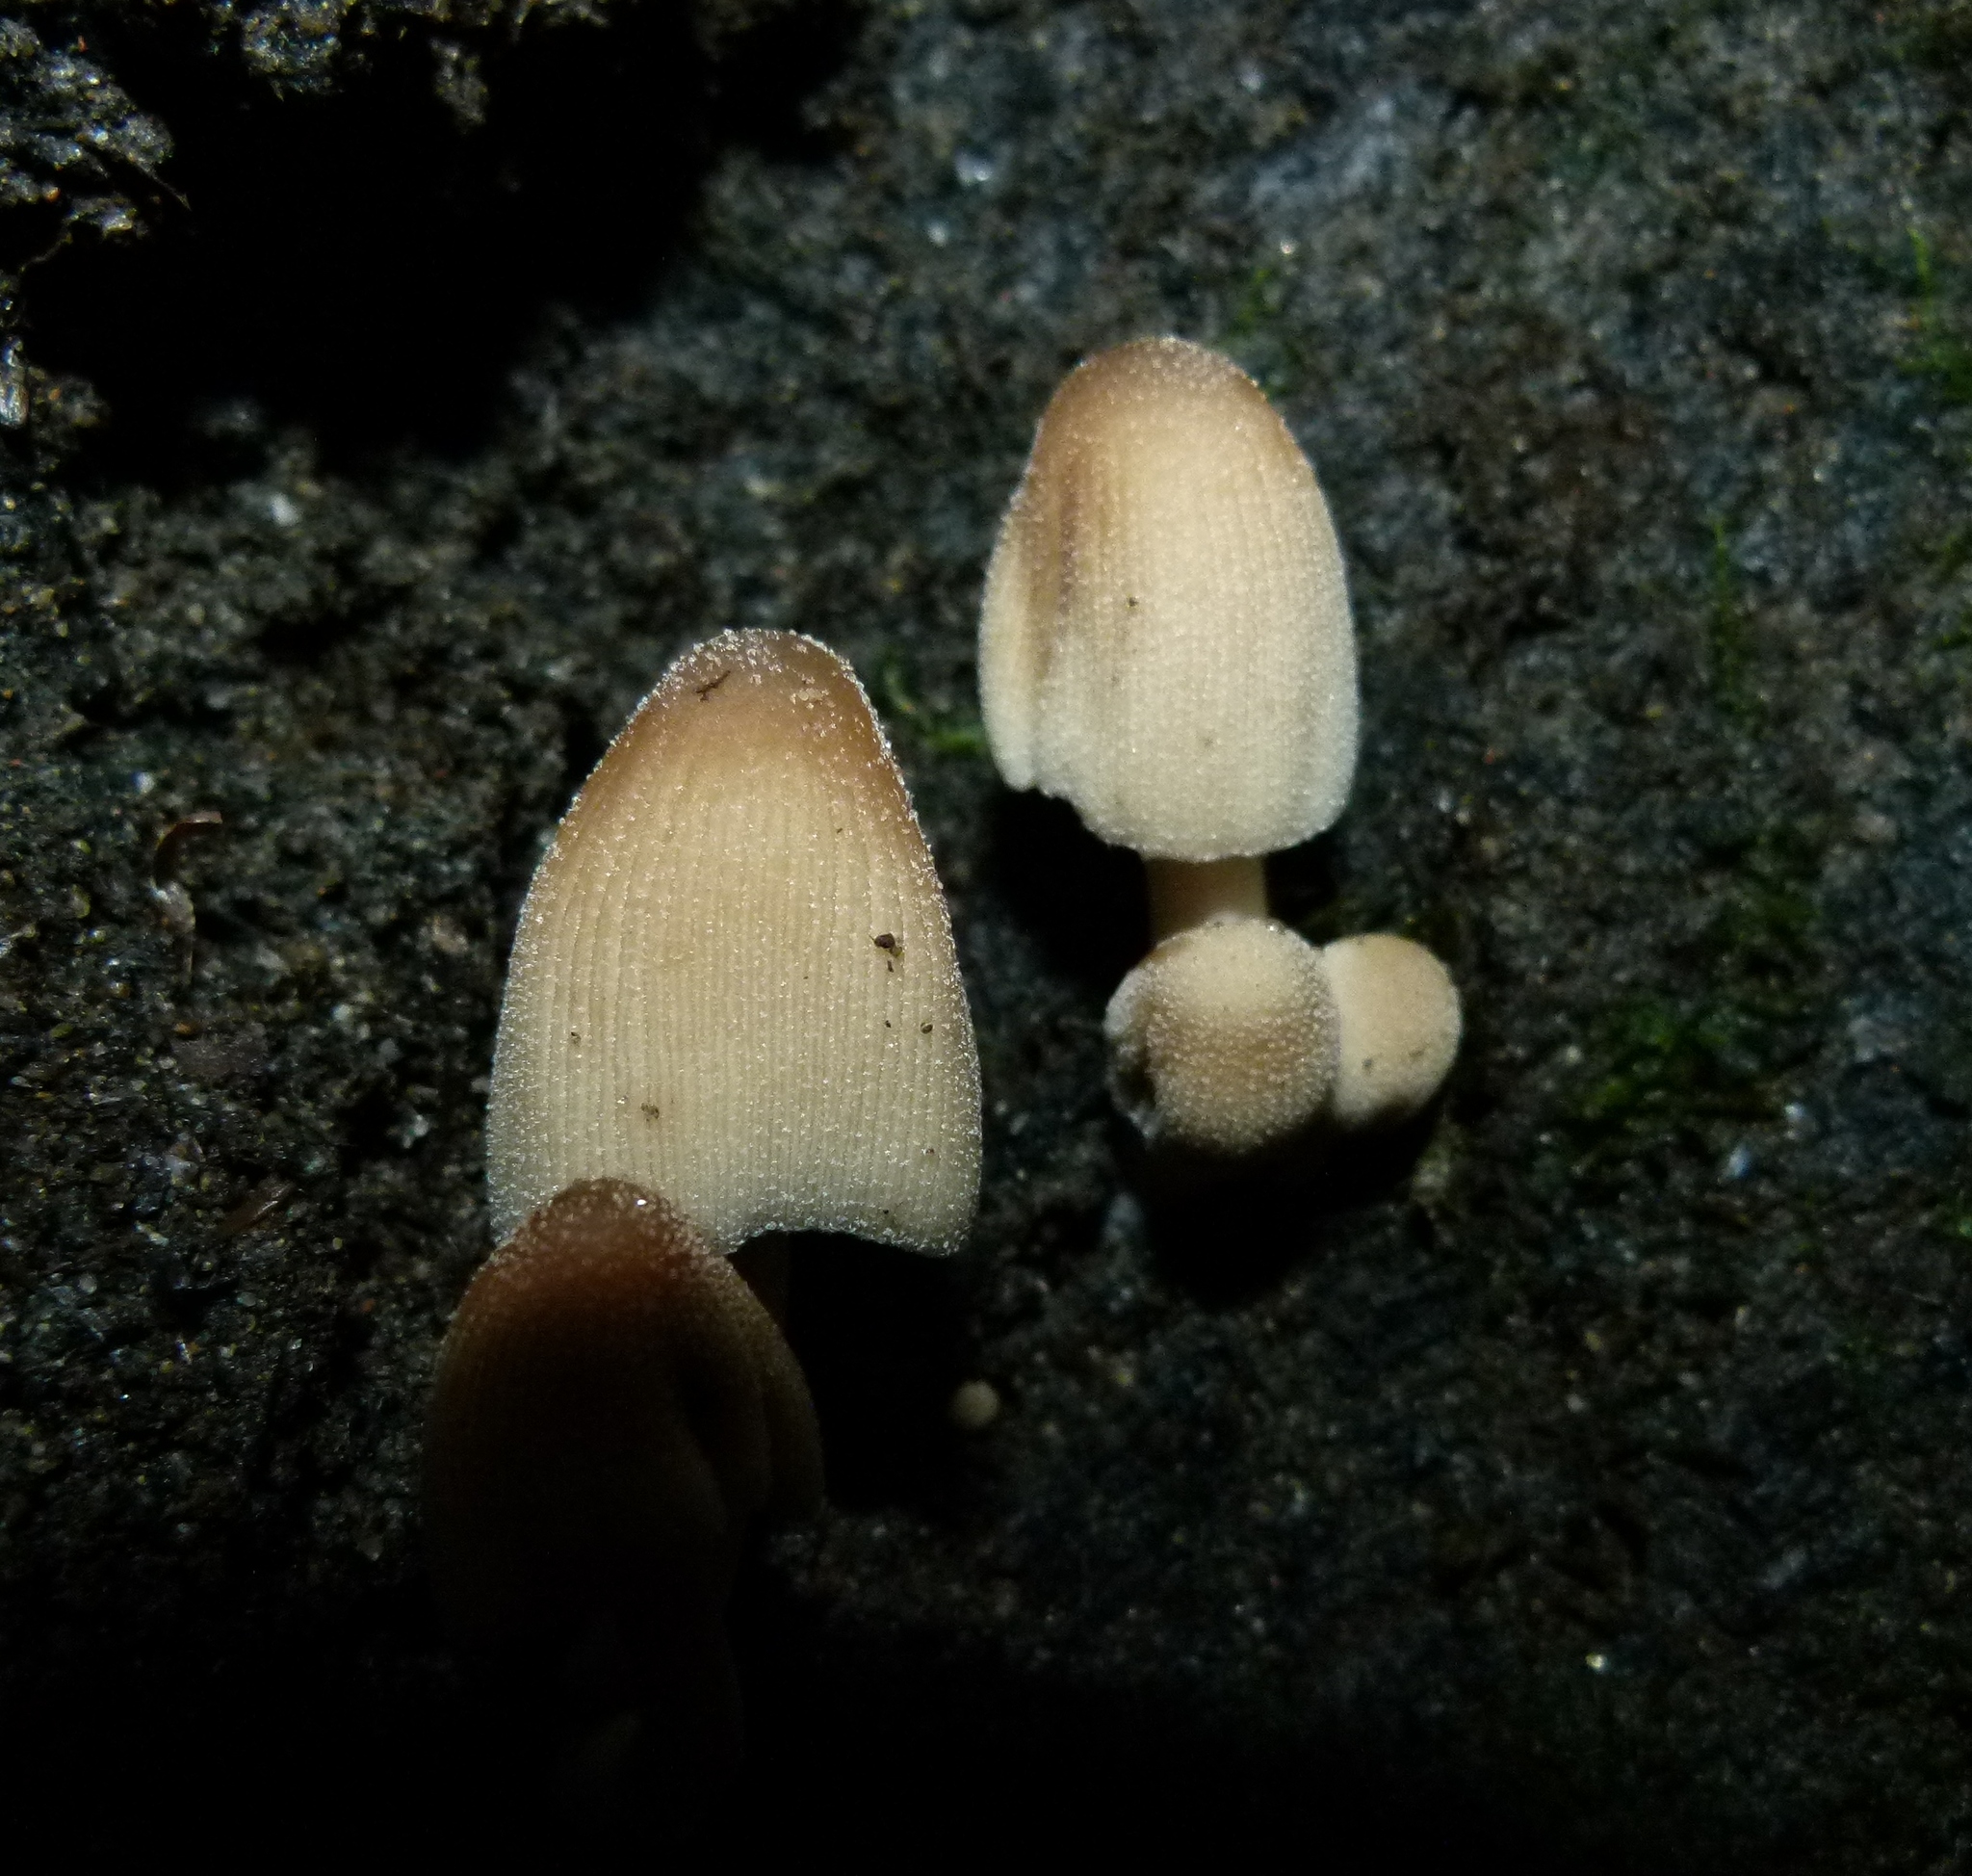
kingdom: Fungi
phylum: Basidiomycota
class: Agaricomycetes
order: Agaricales
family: Psathyrellaceae
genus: Coprinellus
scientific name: Coprinellus micaceus
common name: Glistening ink-cap
